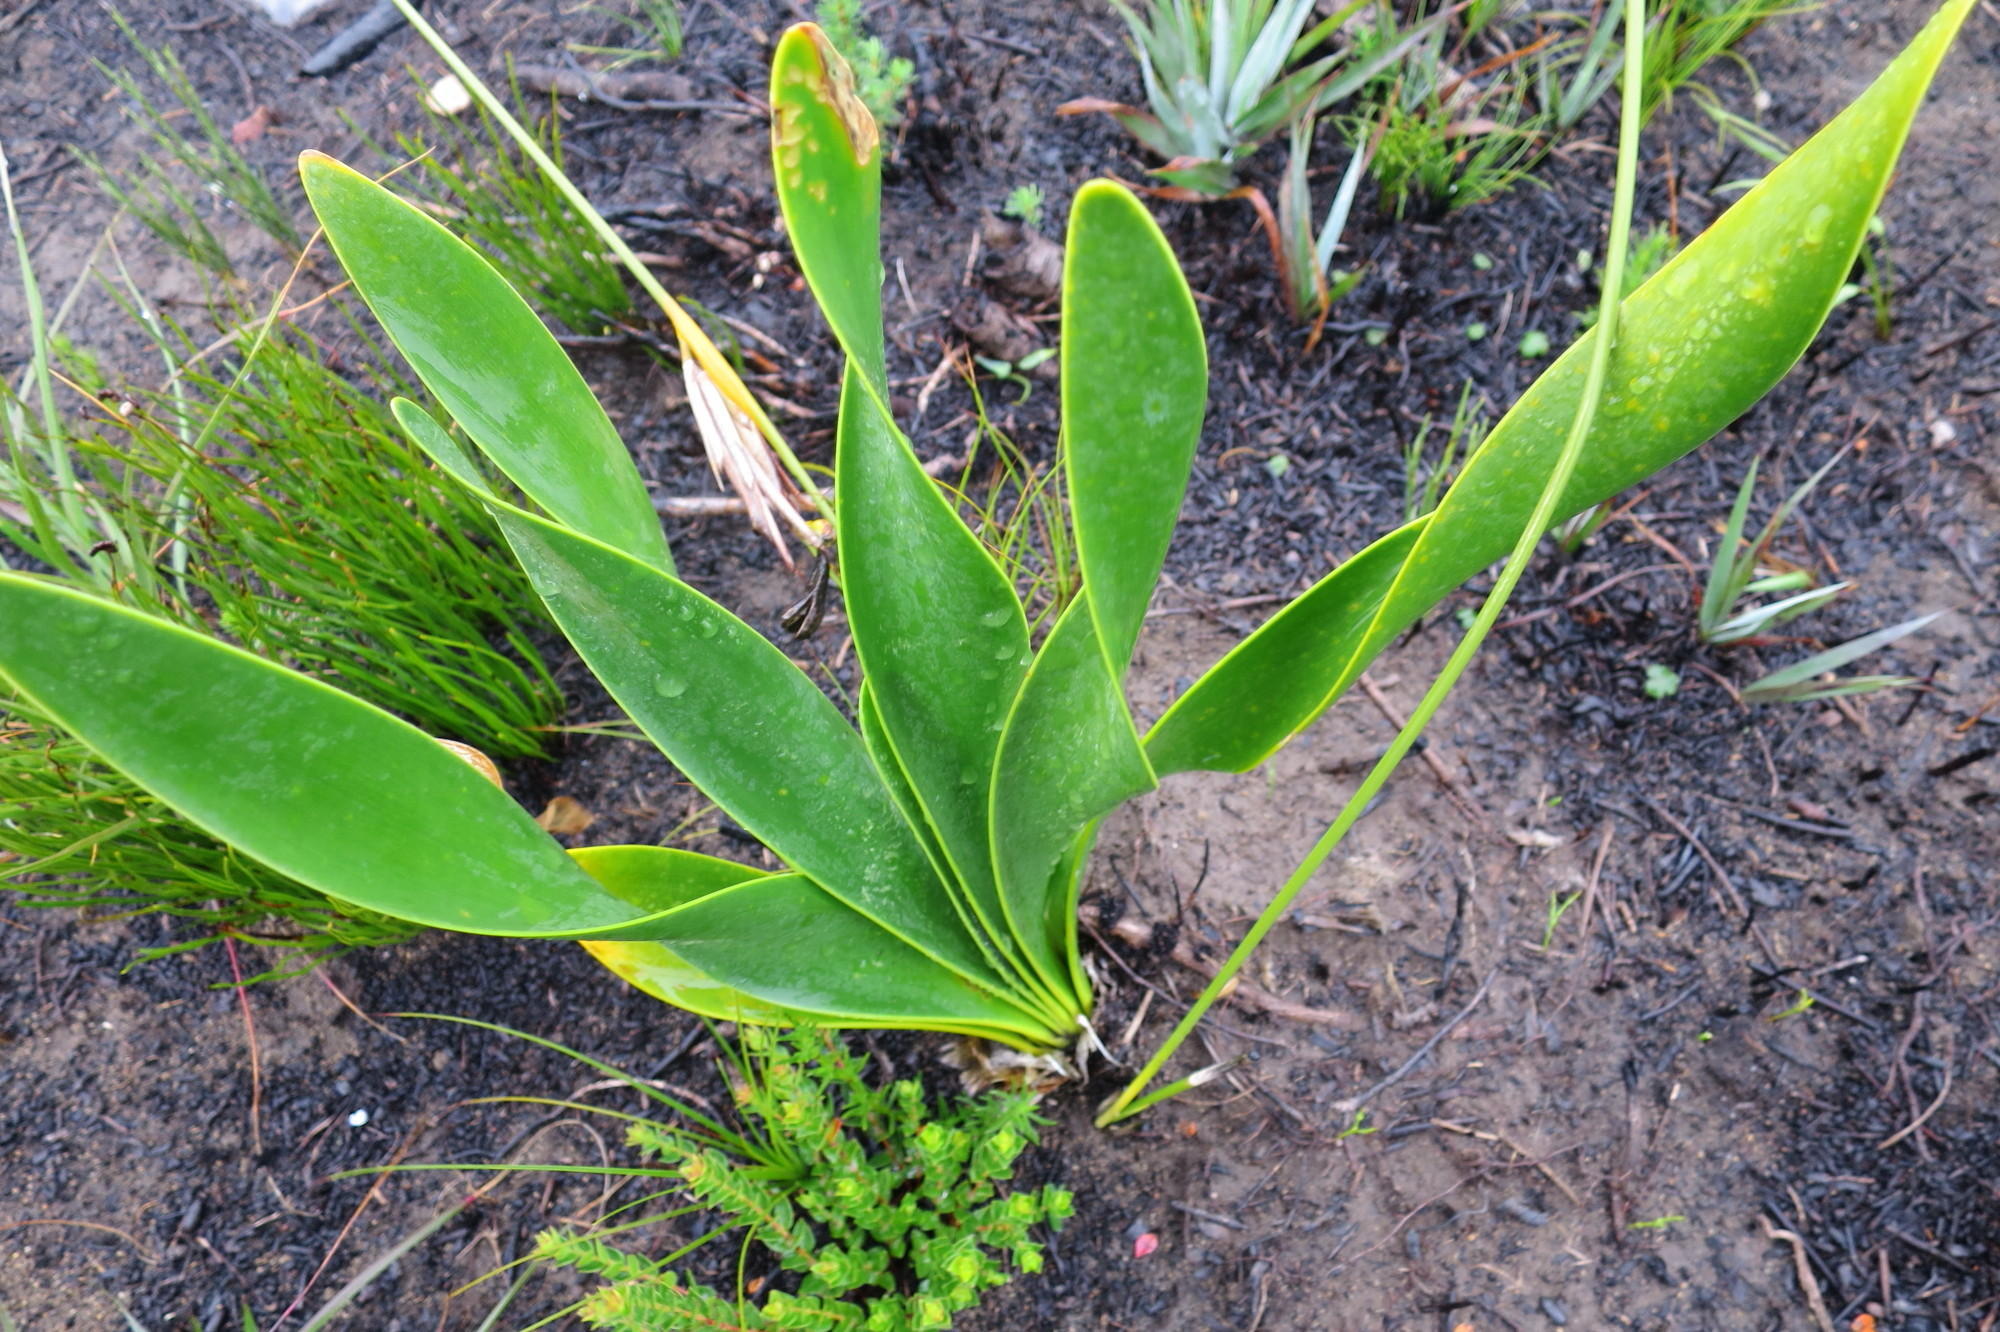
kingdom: Plantae
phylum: Tracheophyta
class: Liliopsida
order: Asparagales
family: Amaryllidaceae
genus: Cyrtanthus
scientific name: Cyrtanthus carneus
